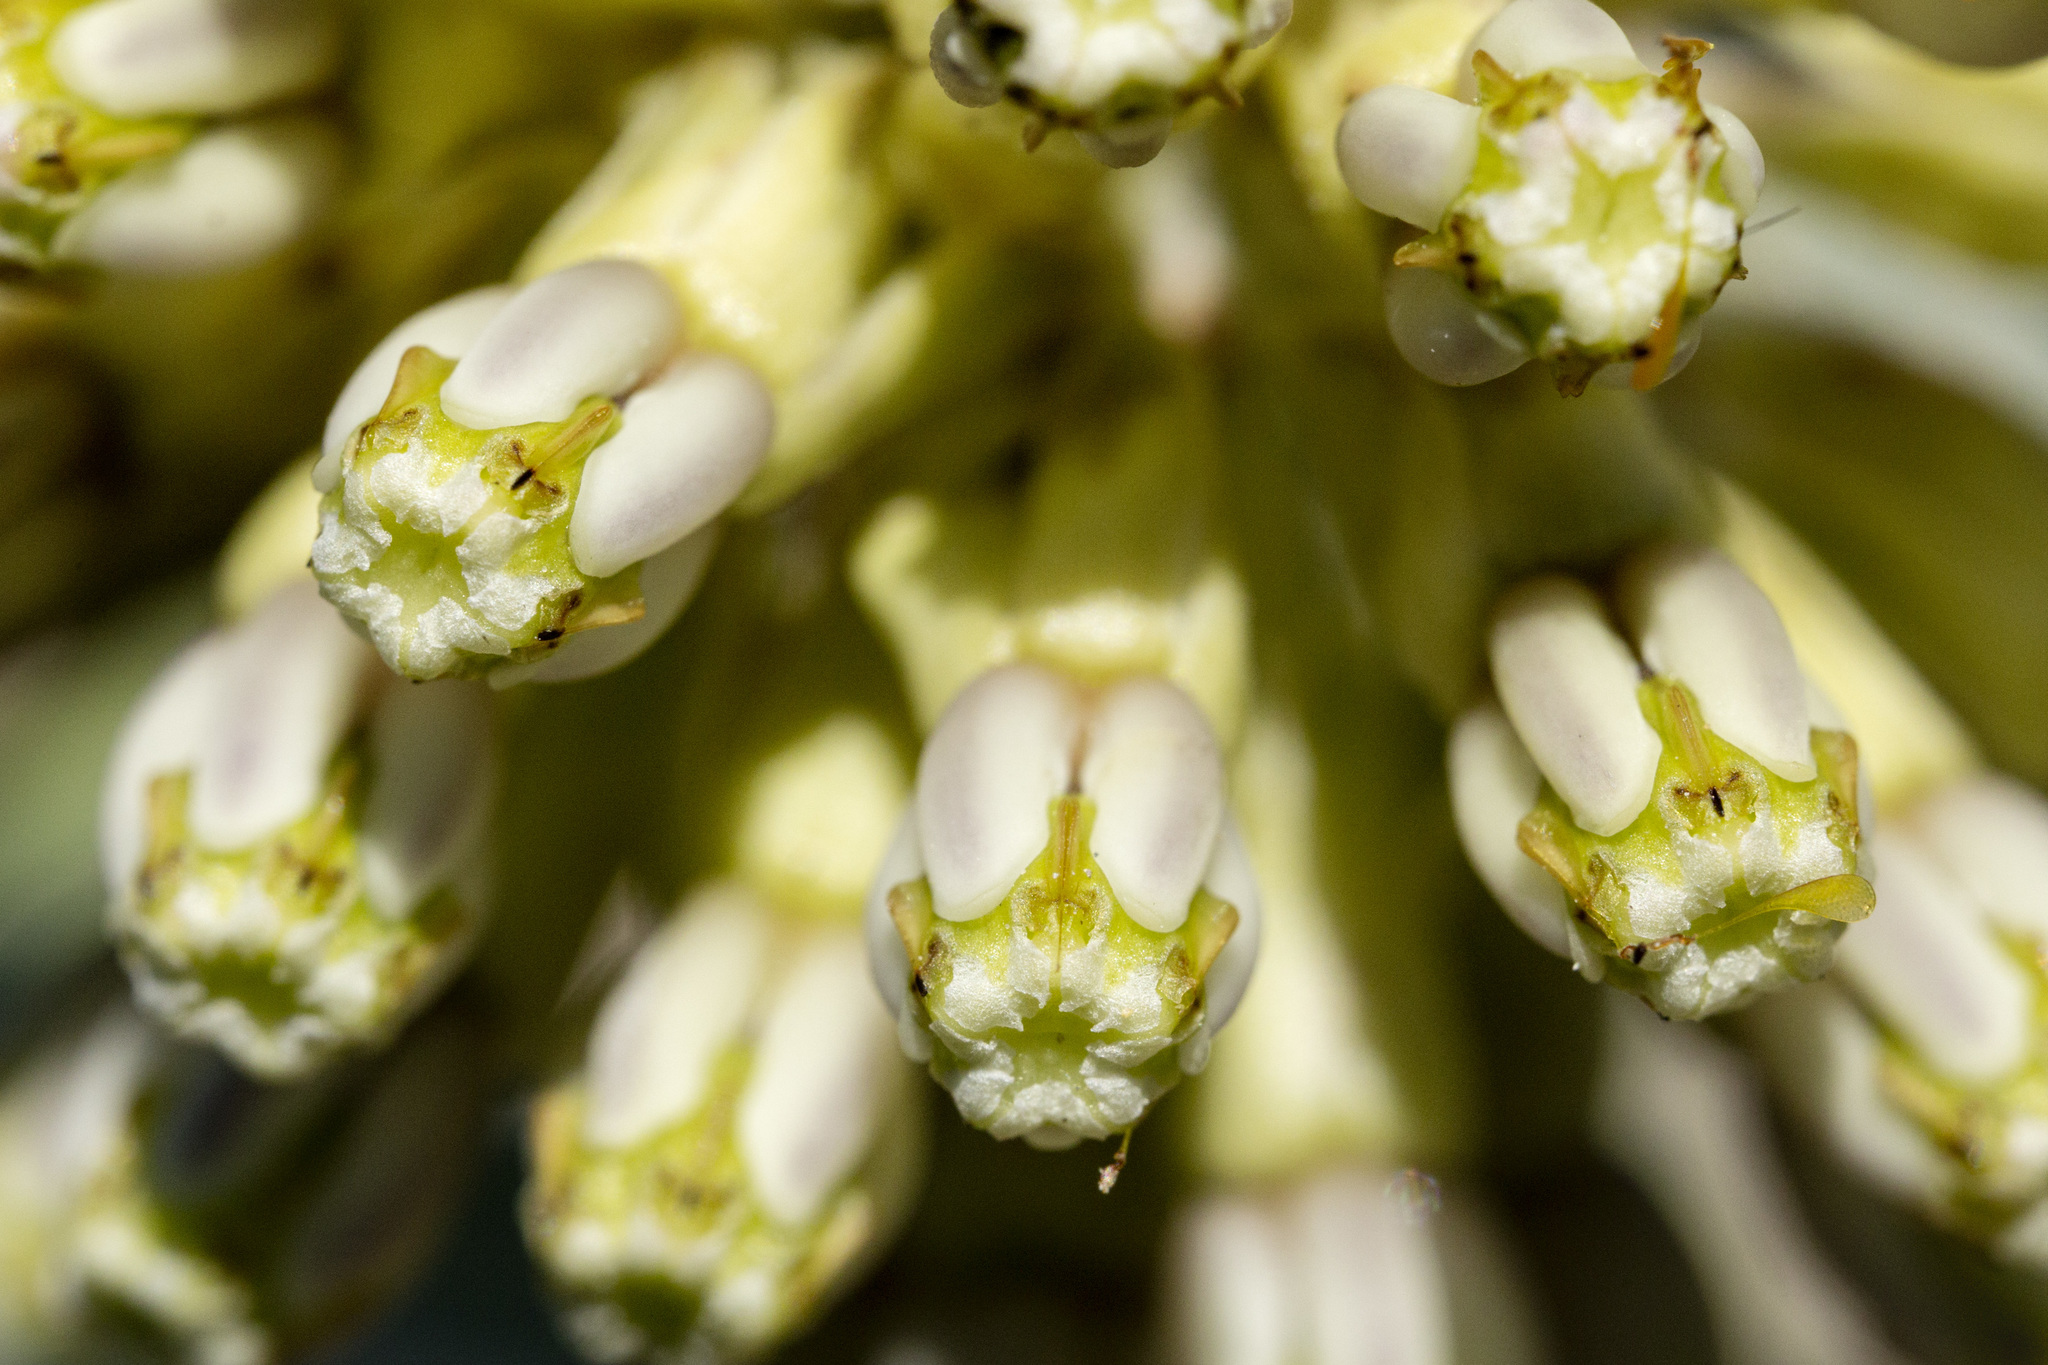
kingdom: Plantae
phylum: Tracheophyta
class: Magnoliopsida
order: Gentianales
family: Apocynaceae
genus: Asclepias
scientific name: Asclepias viridiflora
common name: Green comet milkweed
